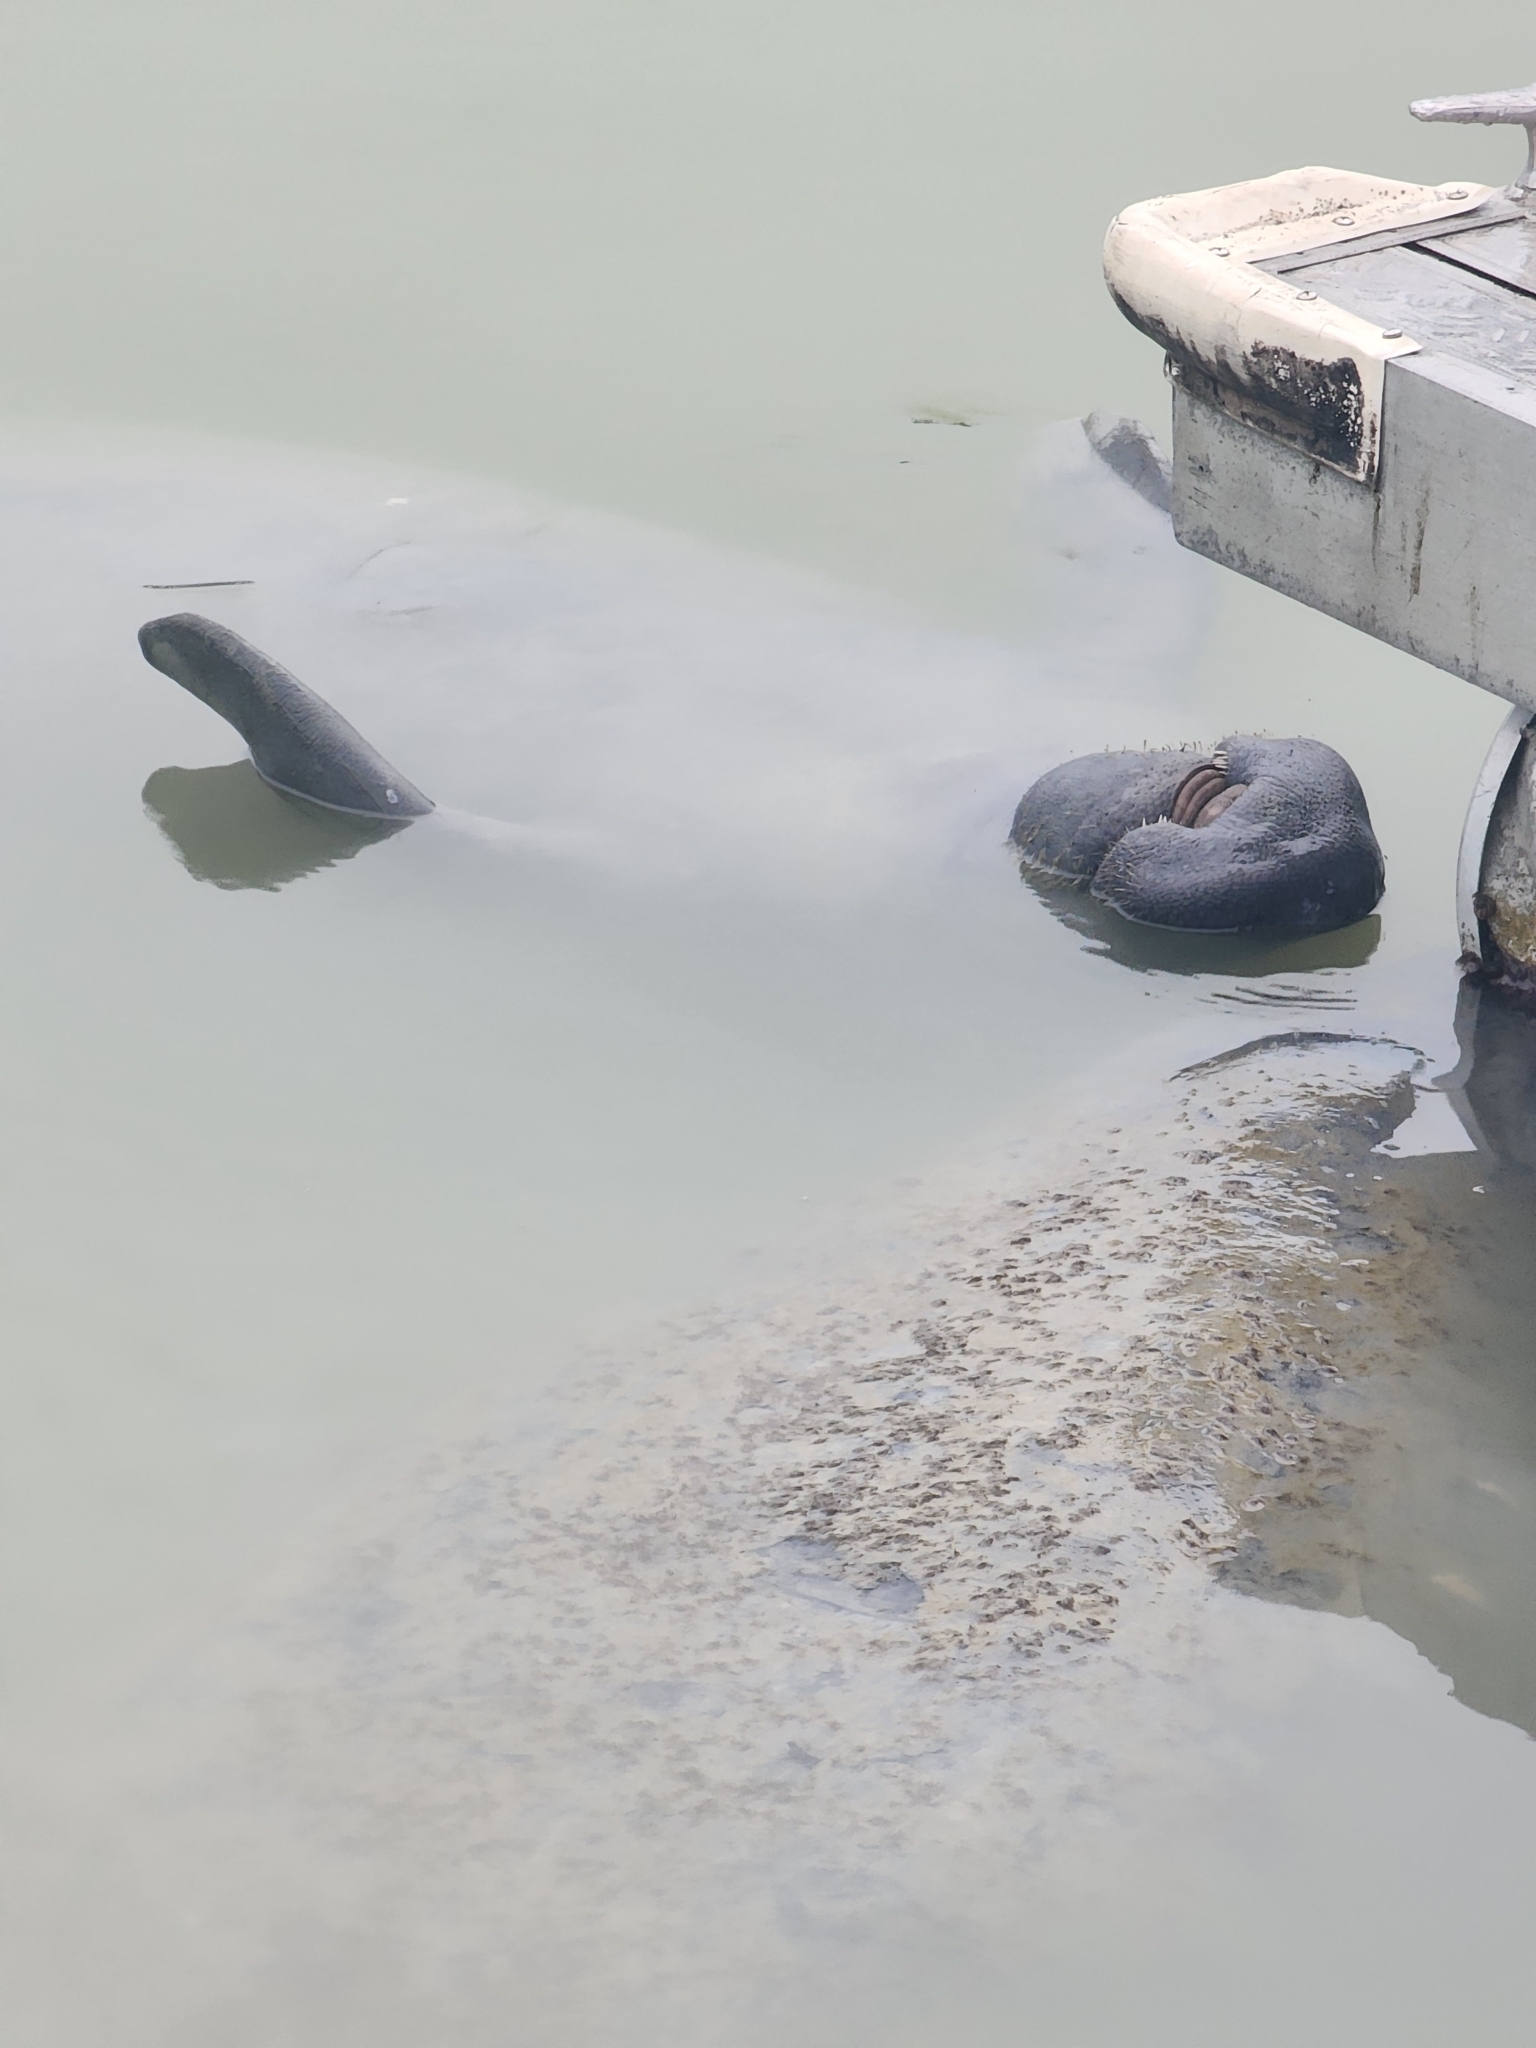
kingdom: Animalia
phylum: Chordata
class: Mammalia
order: Sirenia
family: Trichechidae
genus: Trichechus
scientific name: Trichechus manatus
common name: West indian manatee
